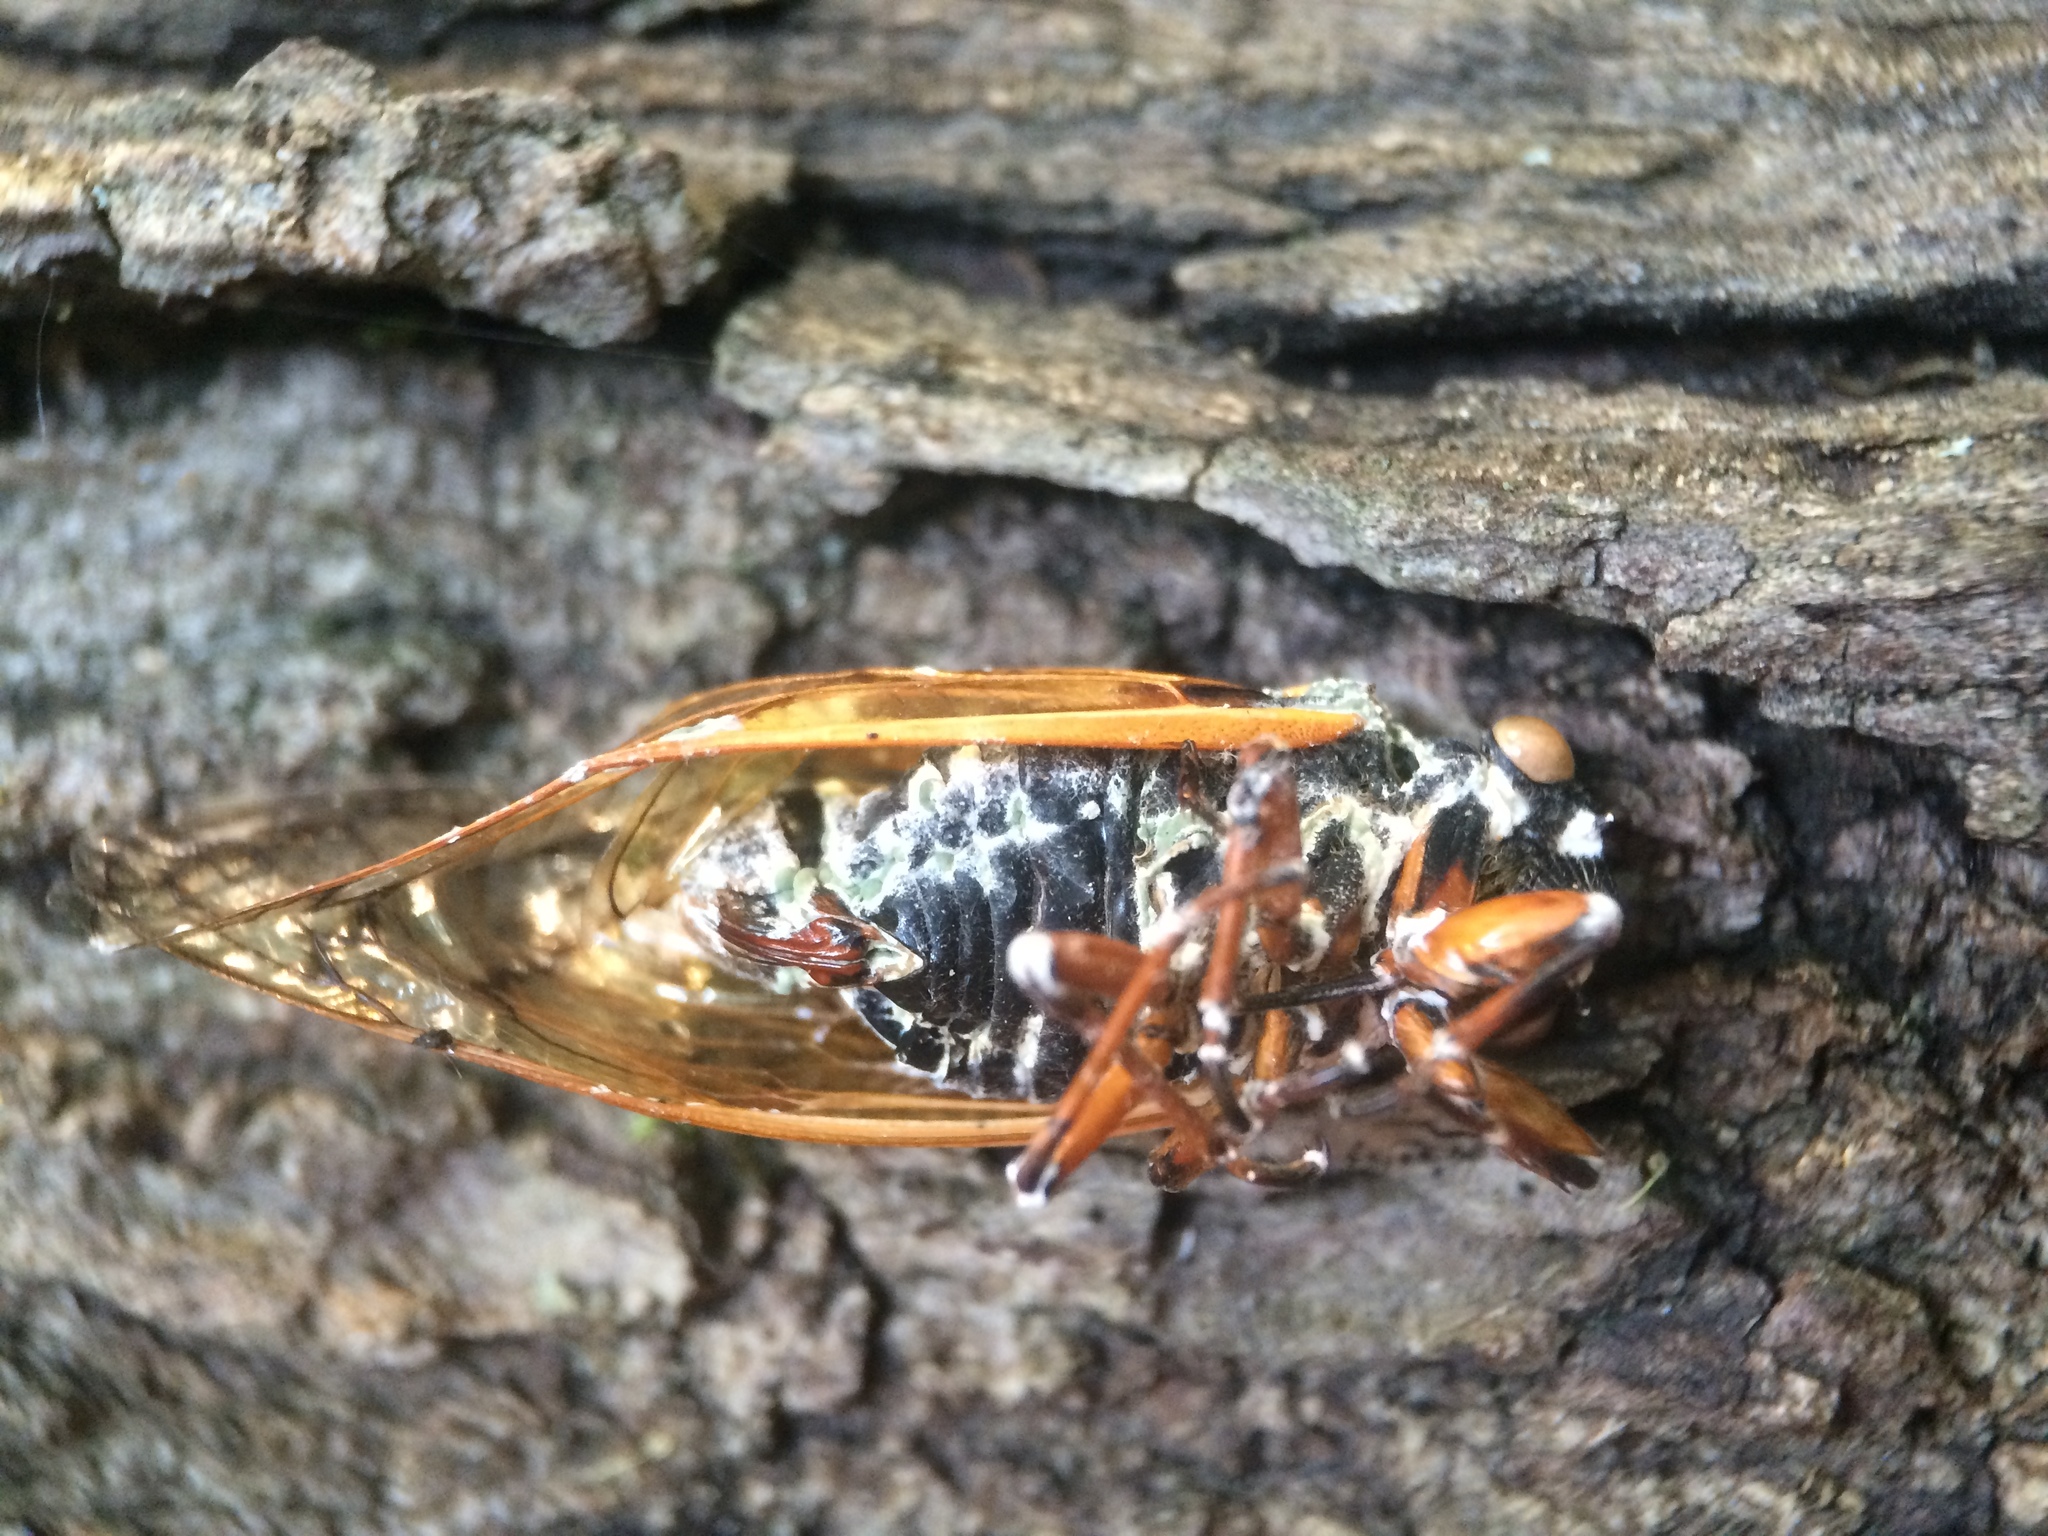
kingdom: Fungi
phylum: Ascomycota
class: Sordariomycetes
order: Hypocreales
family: Clavicipitaceae
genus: Metarhizium
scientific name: Metarhizium anisopliae
